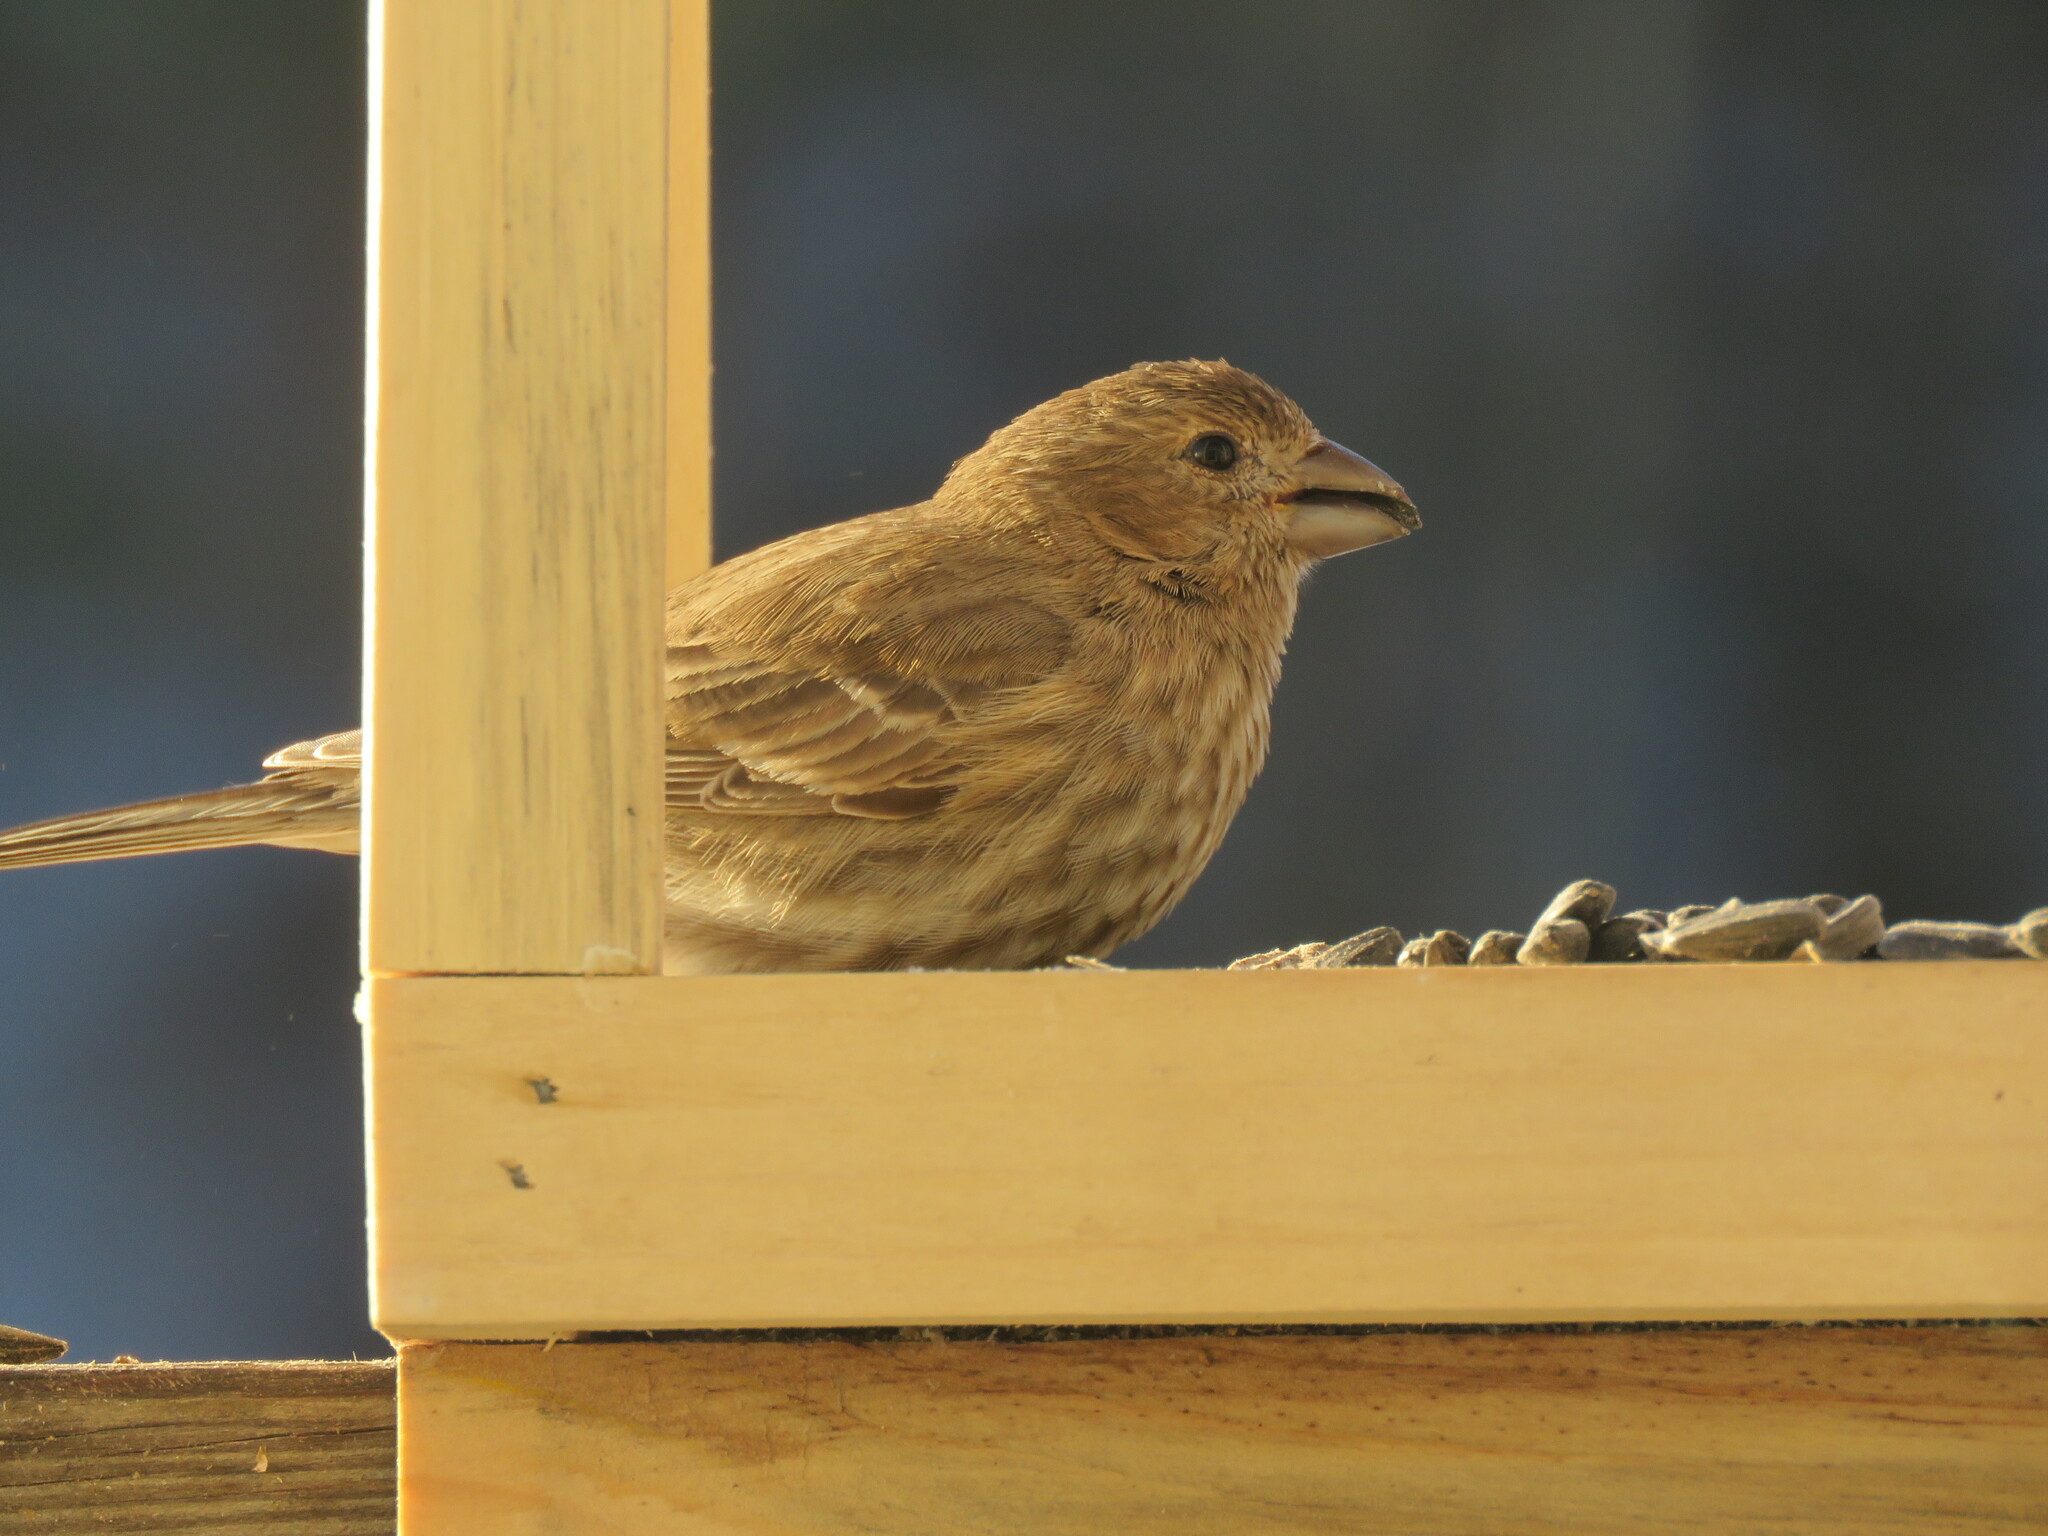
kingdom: Animalia
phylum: Chordata
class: Aves
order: Passeriformes
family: Fringillidae
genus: Haemorhous
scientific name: Haemorhous mexicanus
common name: House finch
